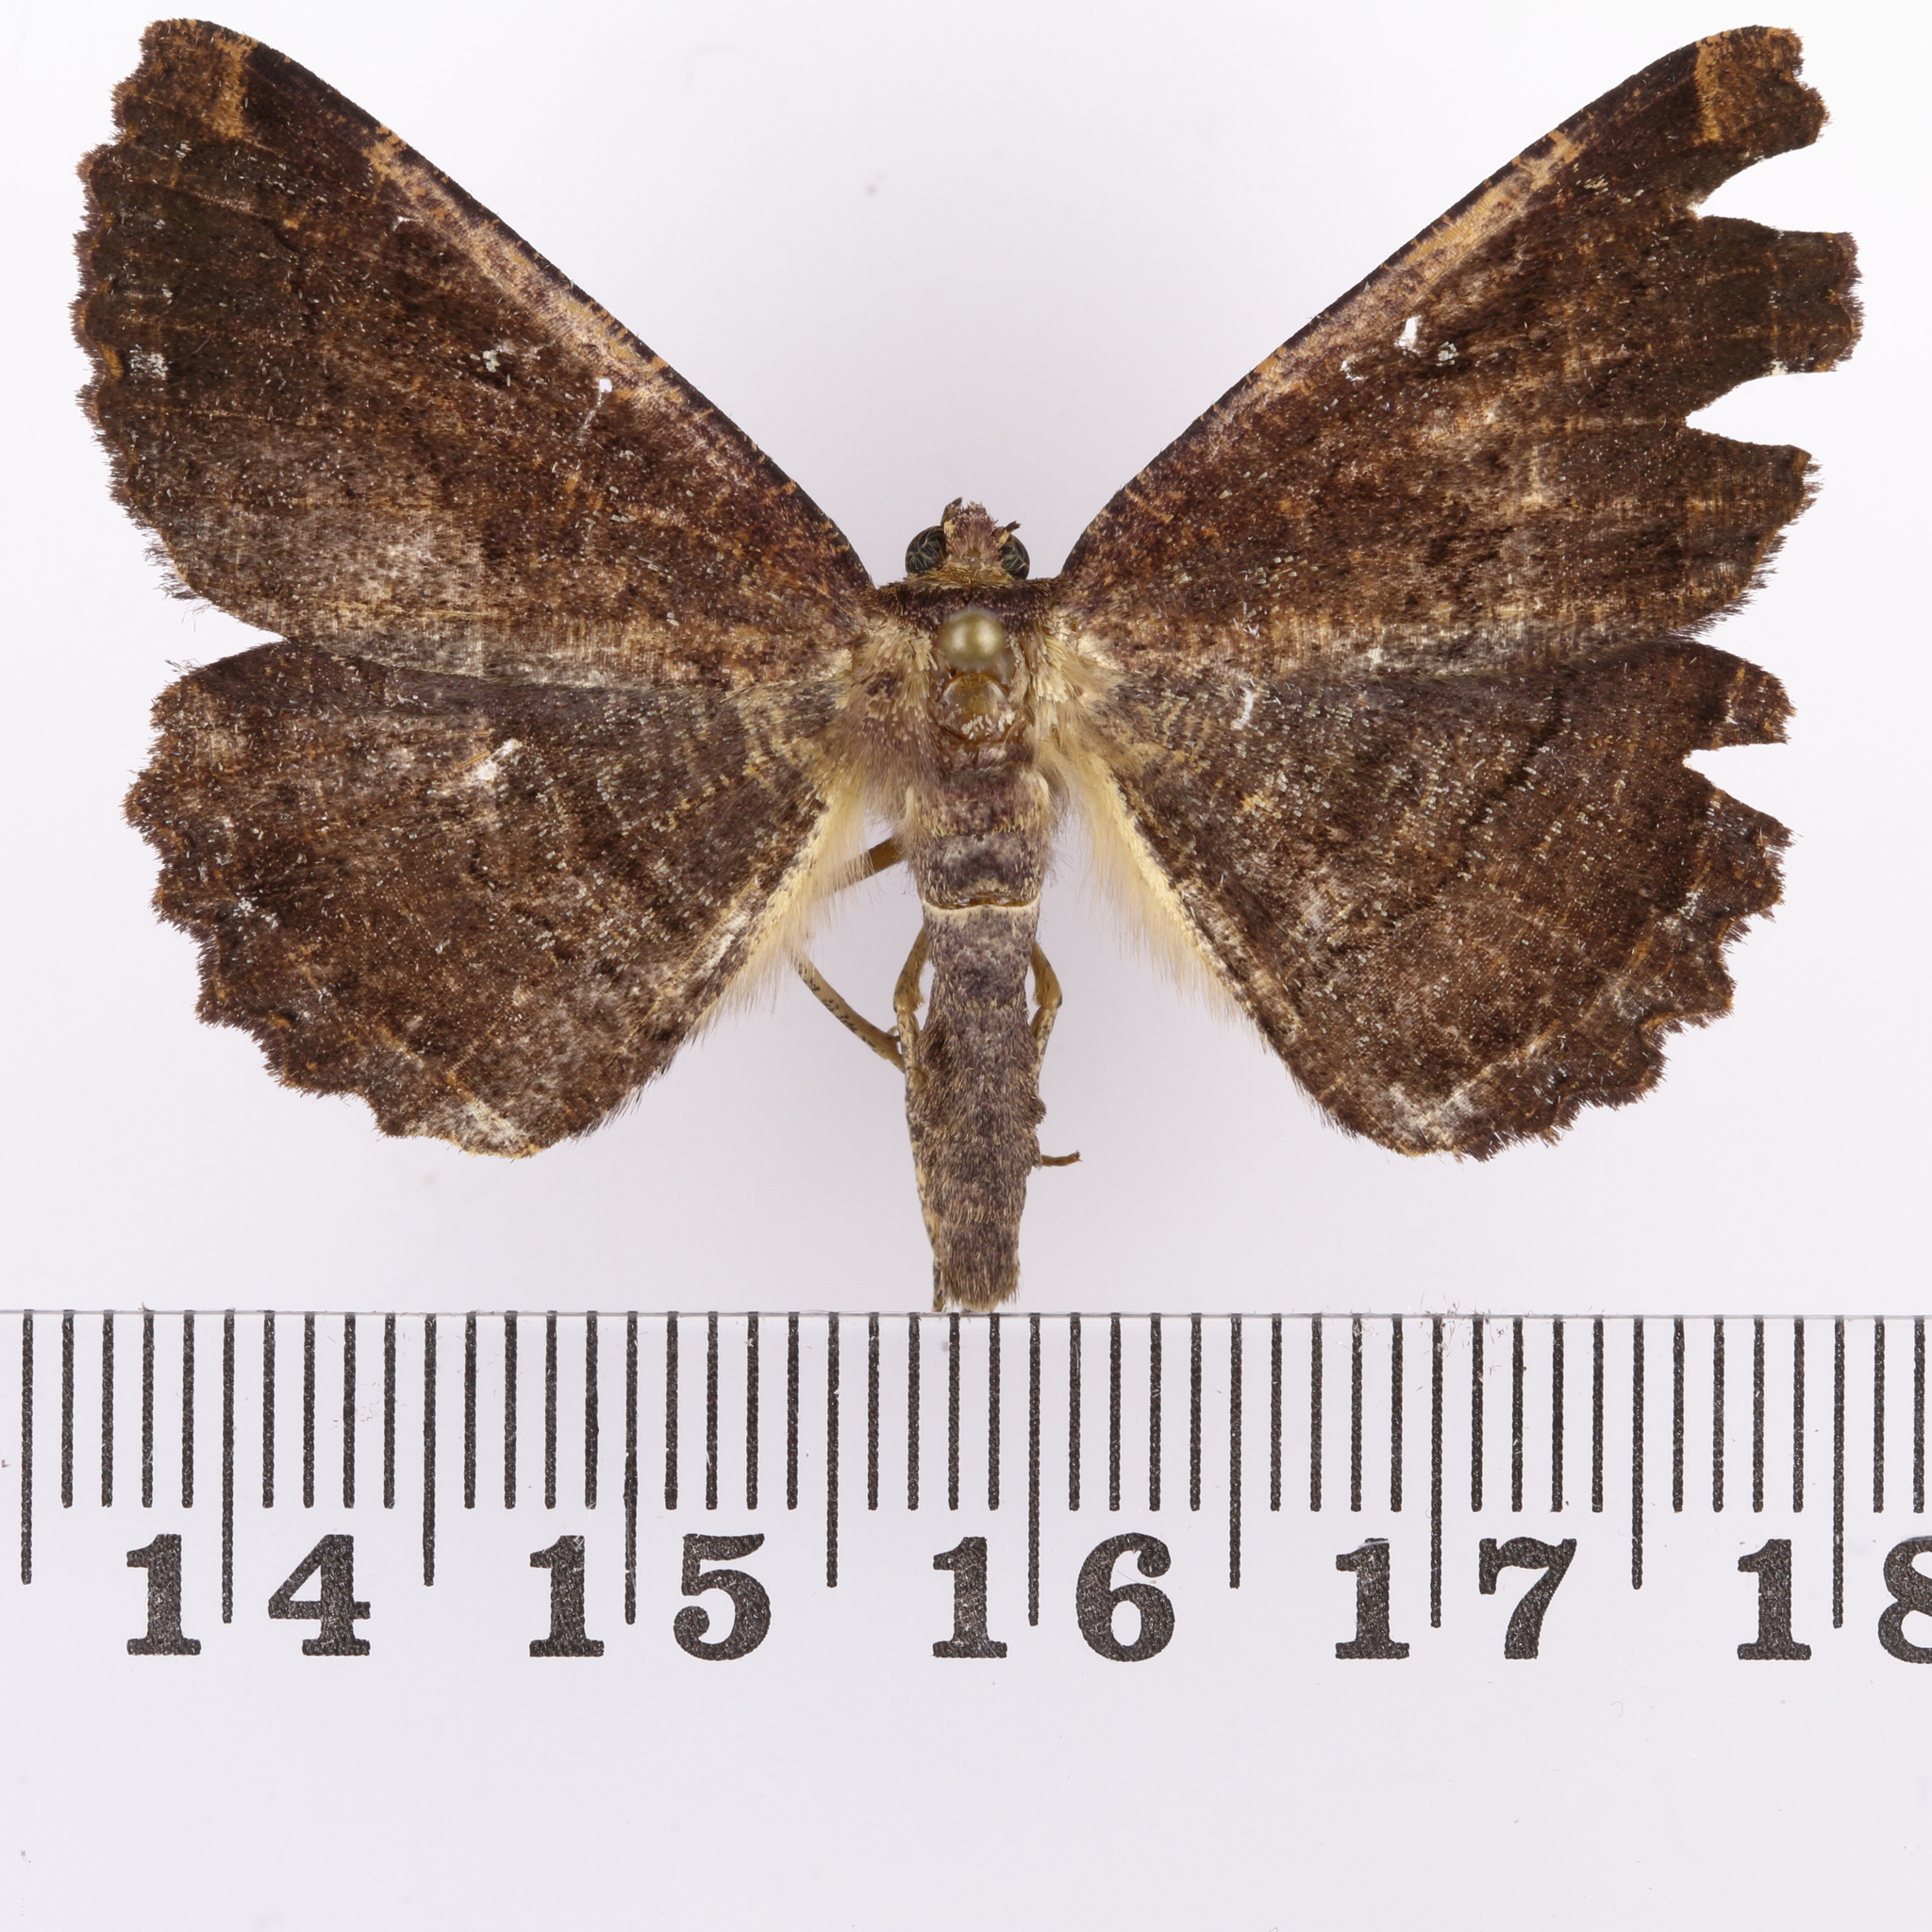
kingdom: Animalia
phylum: Arthropoda
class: Insecta
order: Lepidoptera
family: Geometridae
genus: Gellonia
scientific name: Gellonia dejectaria
